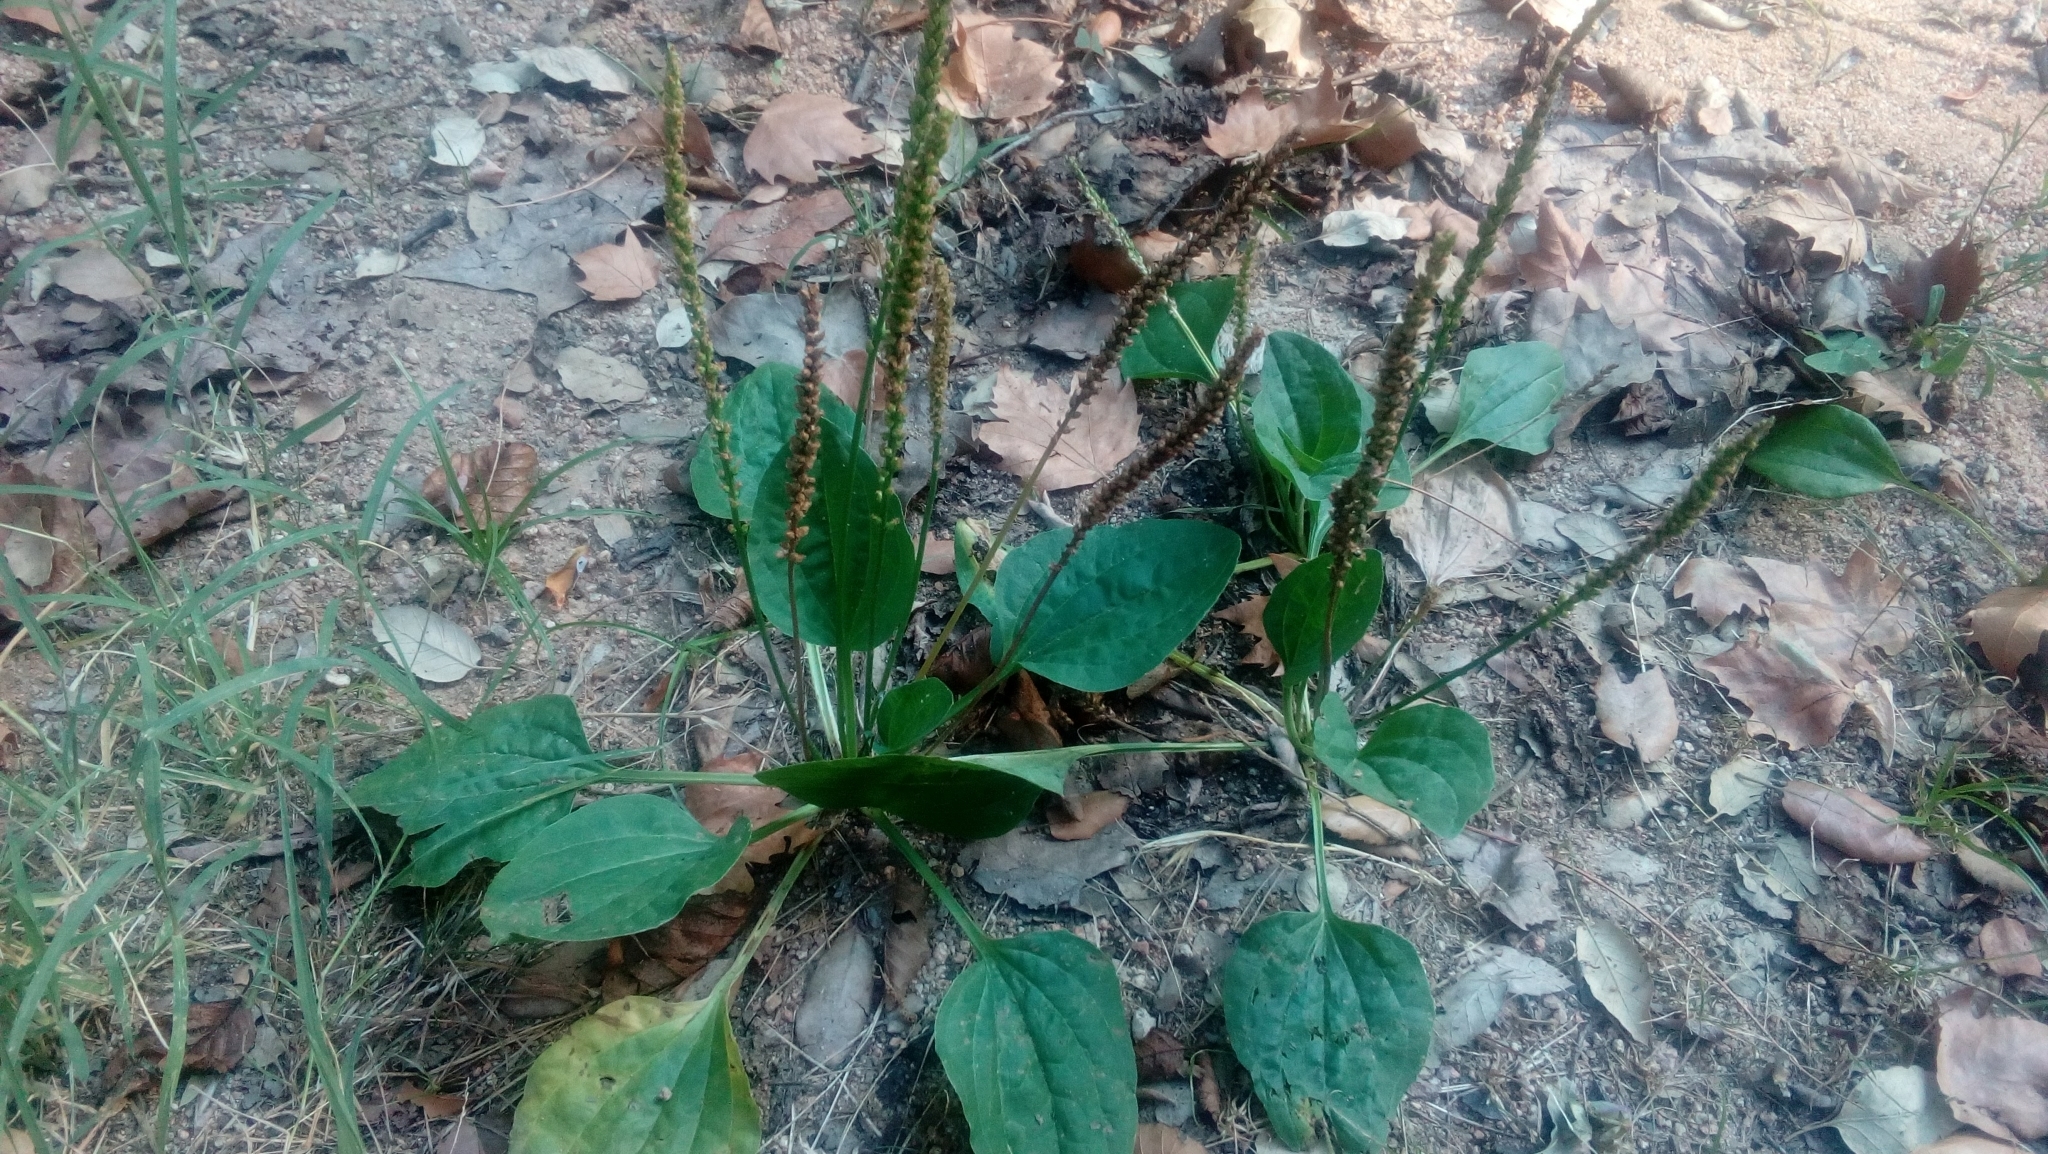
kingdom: Plantae
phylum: Tracheophyta
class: Magnoliopsida
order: Lamiales
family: Plantaginaceae
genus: Plantago
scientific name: Plantago major
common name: Common plantain
